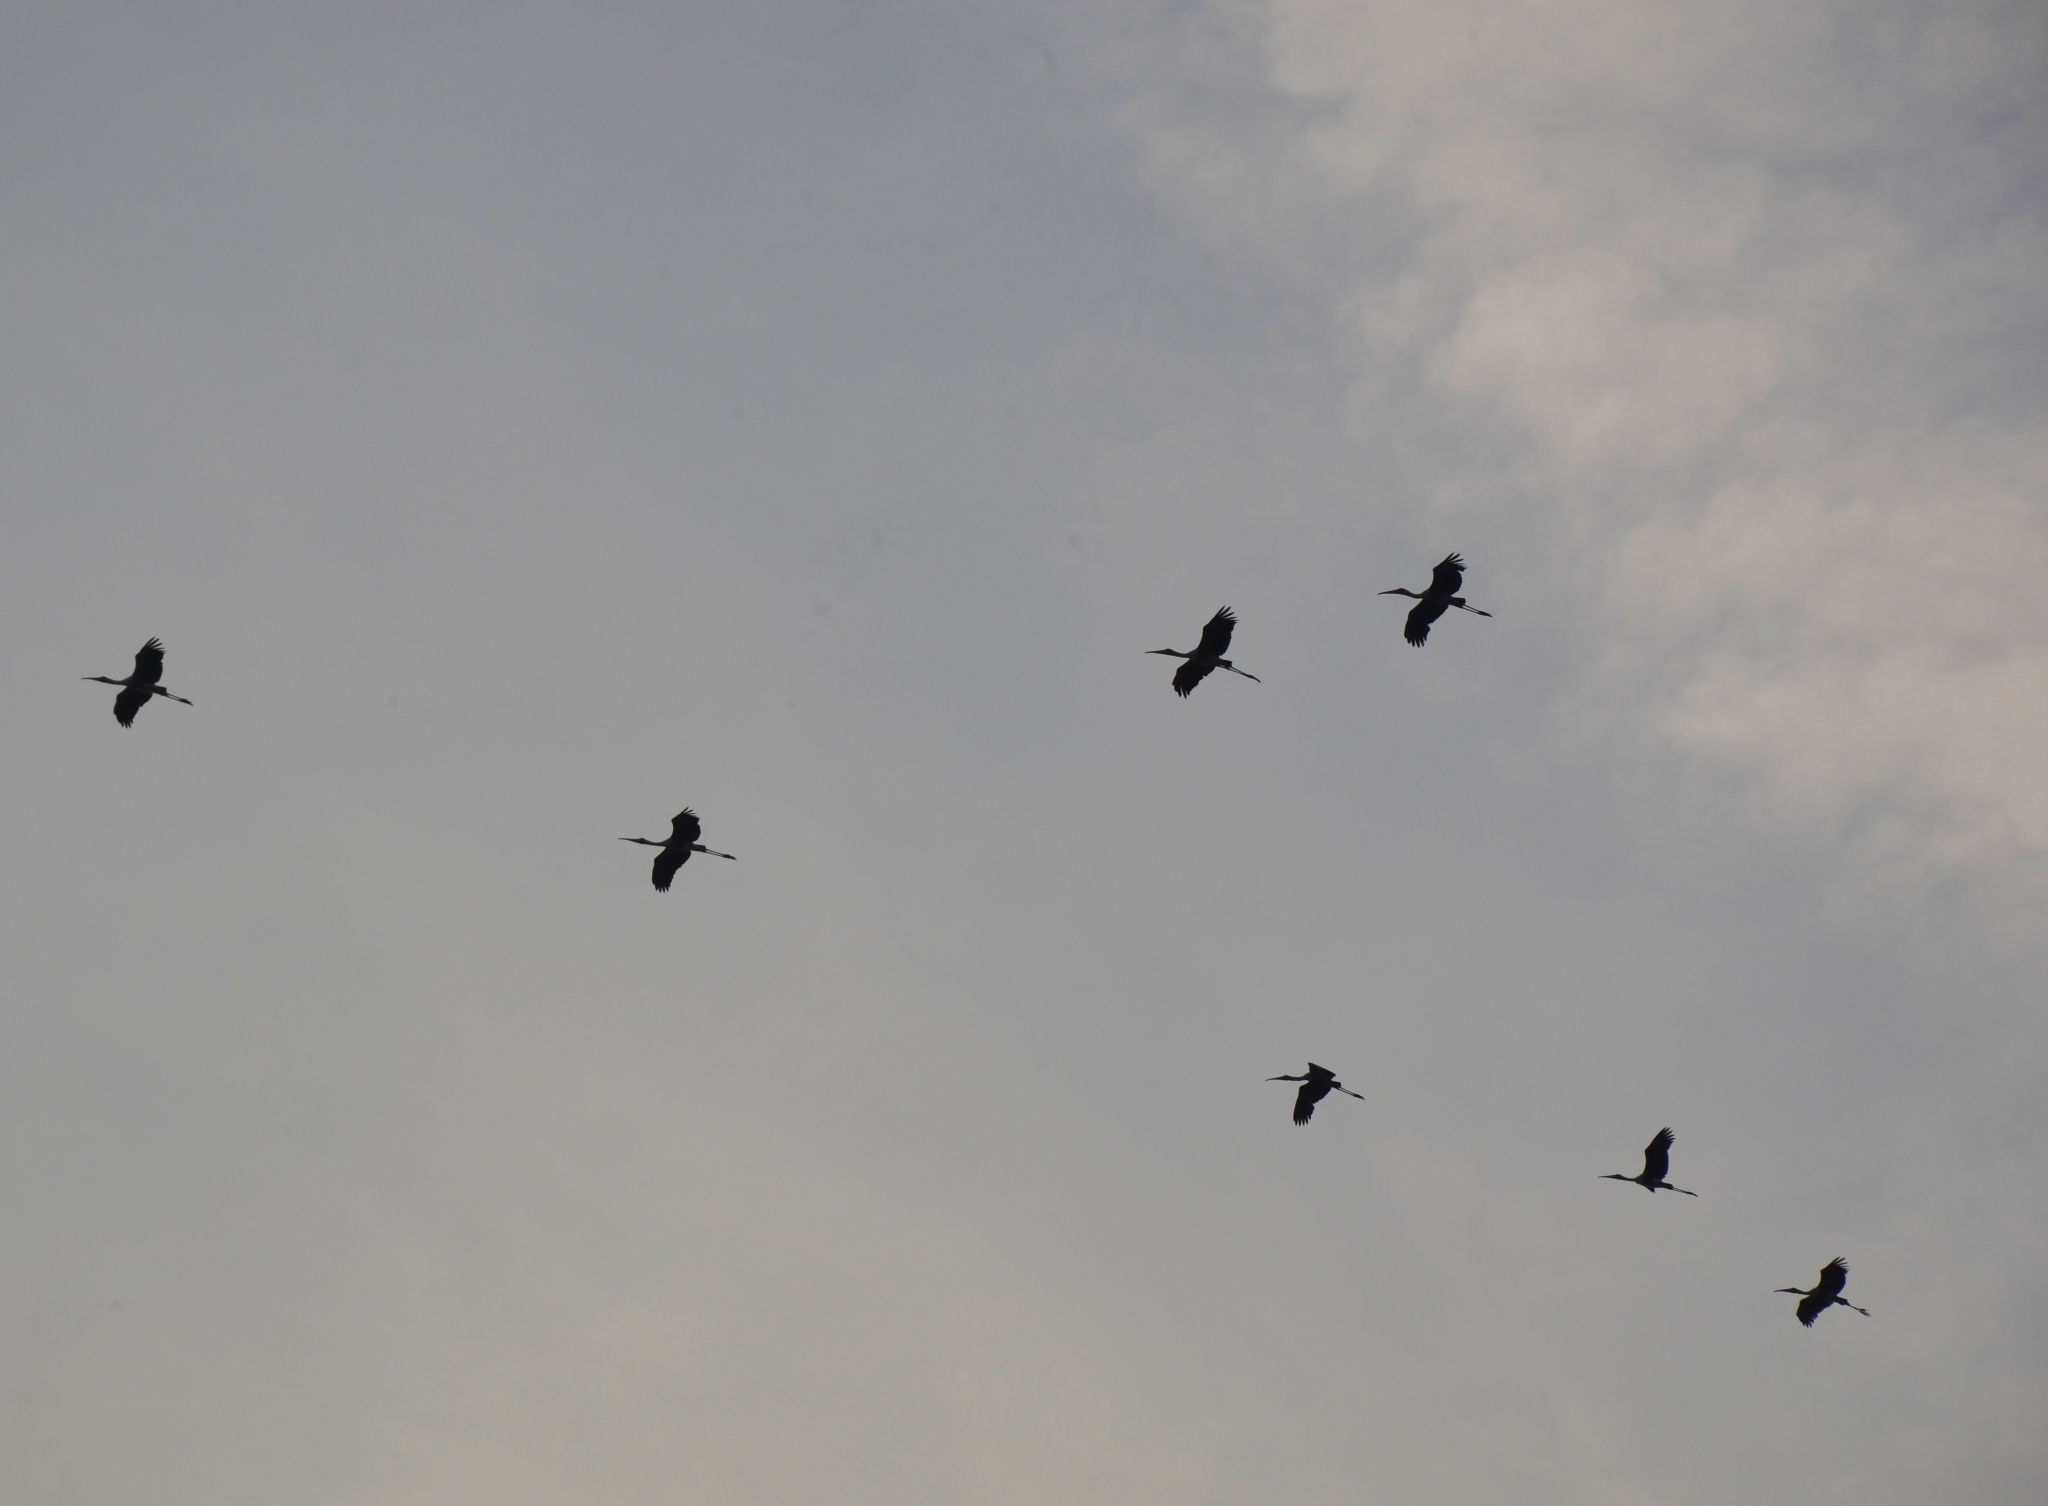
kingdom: Animalia
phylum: Chordata
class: Aves
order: Ciconiiformes
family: Ciconiidae
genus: Mycteria
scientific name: Mycteria leucocephala
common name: Painted stork
